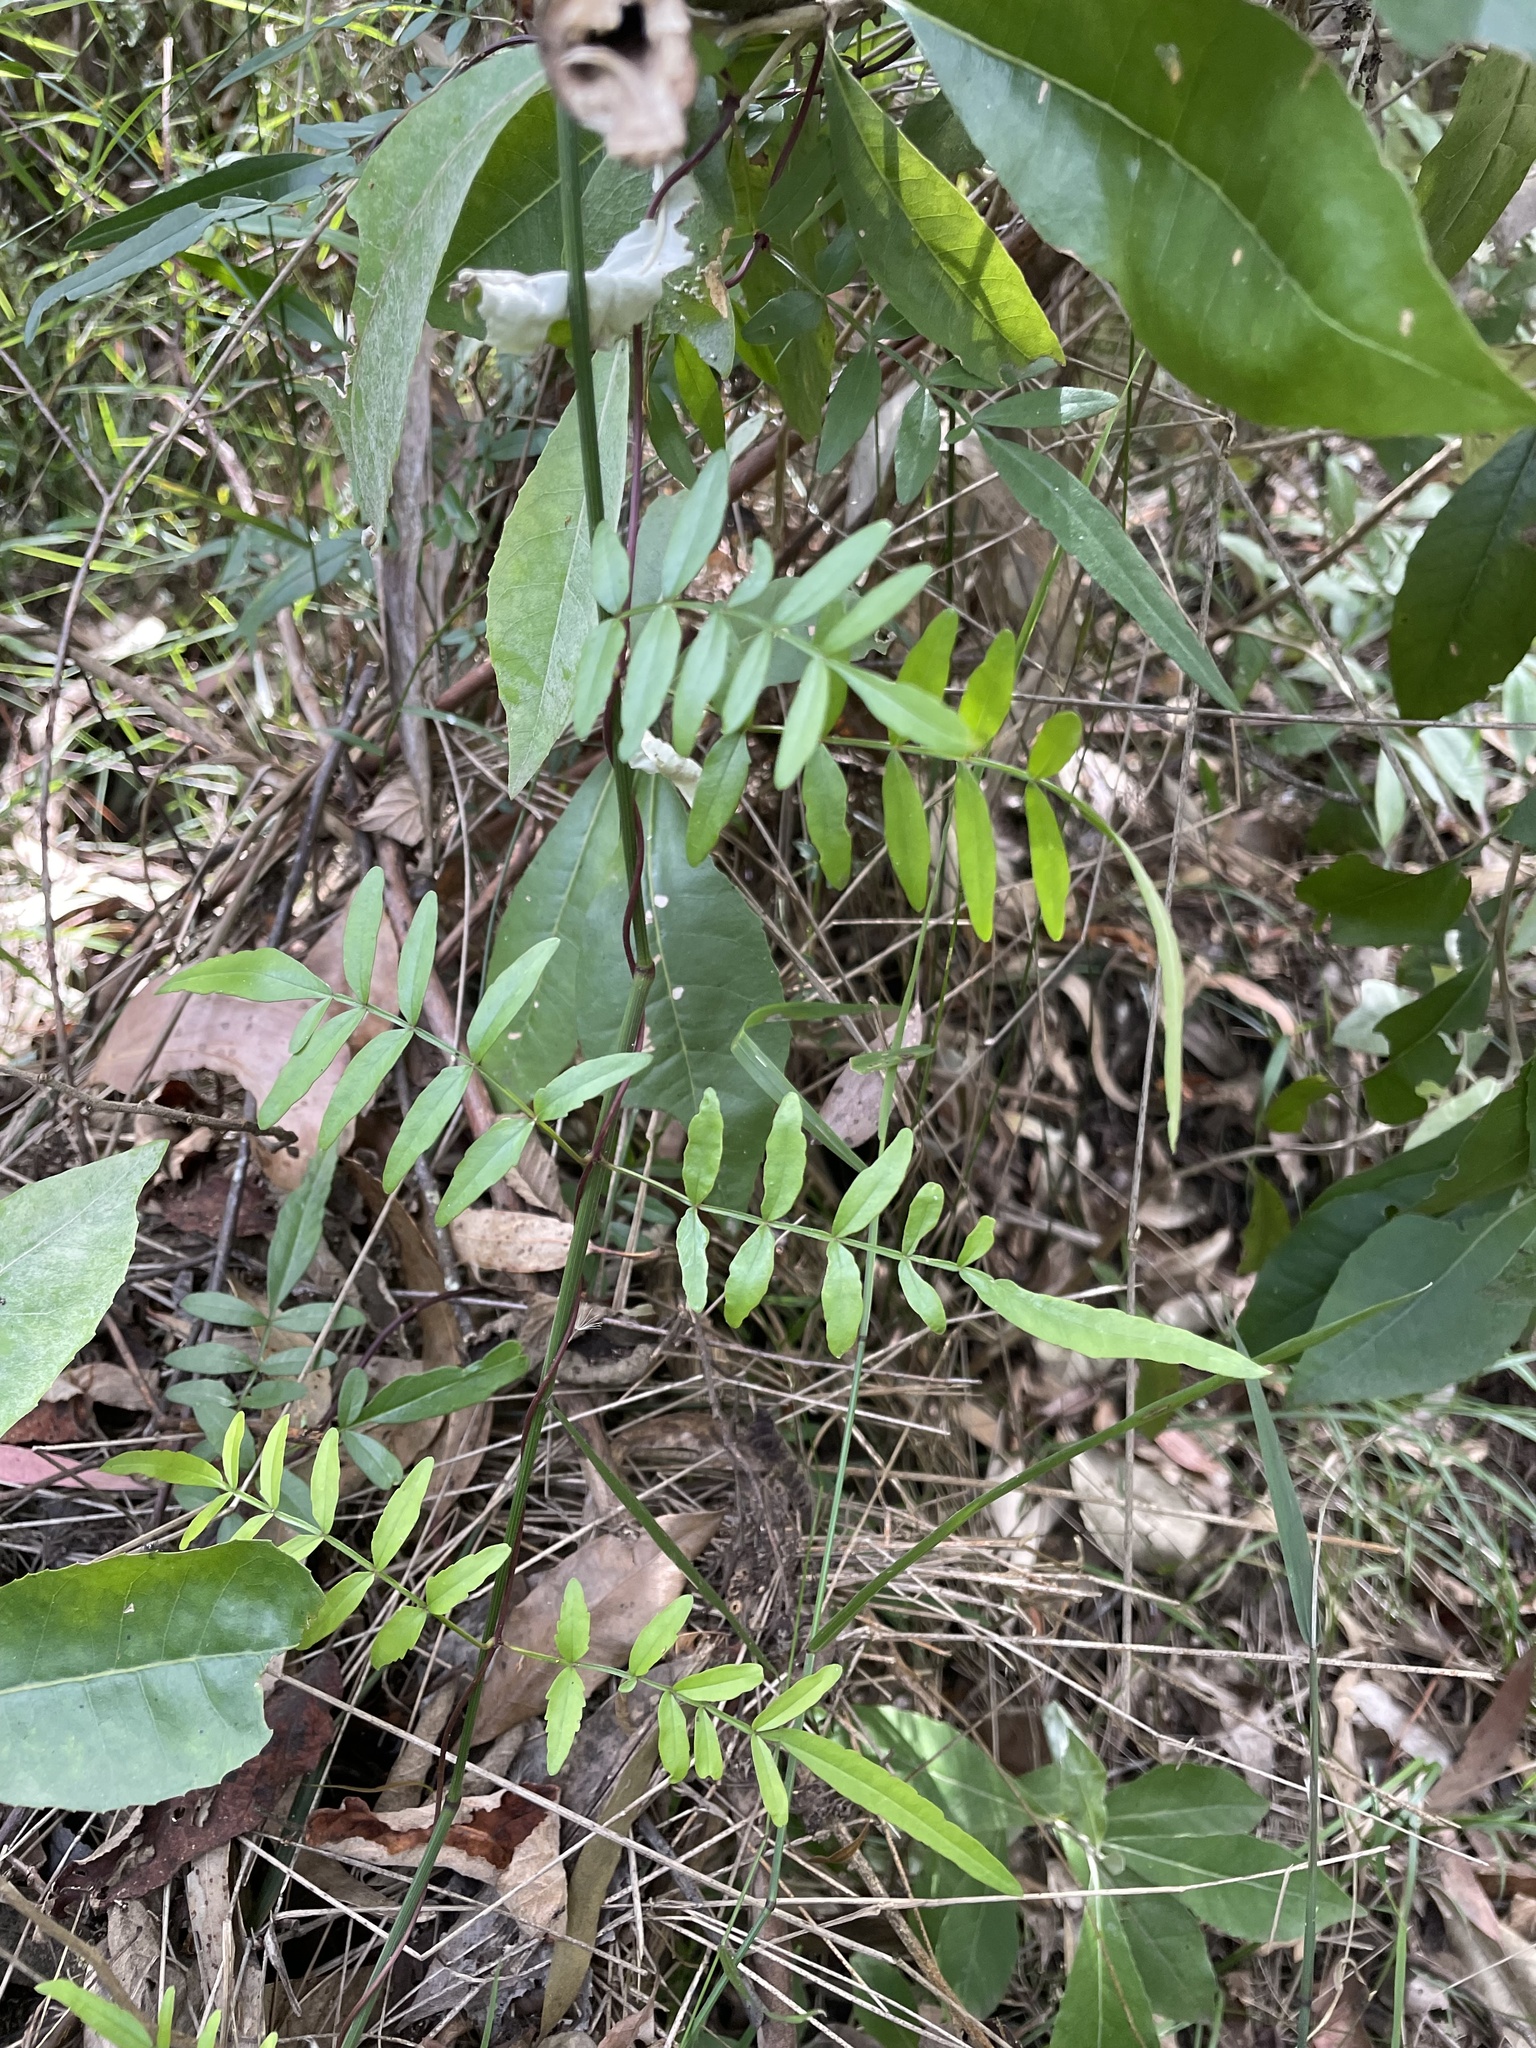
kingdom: Plantae
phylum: Tracheophyta
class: Magnoliopsida
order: Lamiales
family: Bignoniaceae
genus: Pandorea
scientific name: Pandorea pandorana
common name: Wonga-wonga-vine
